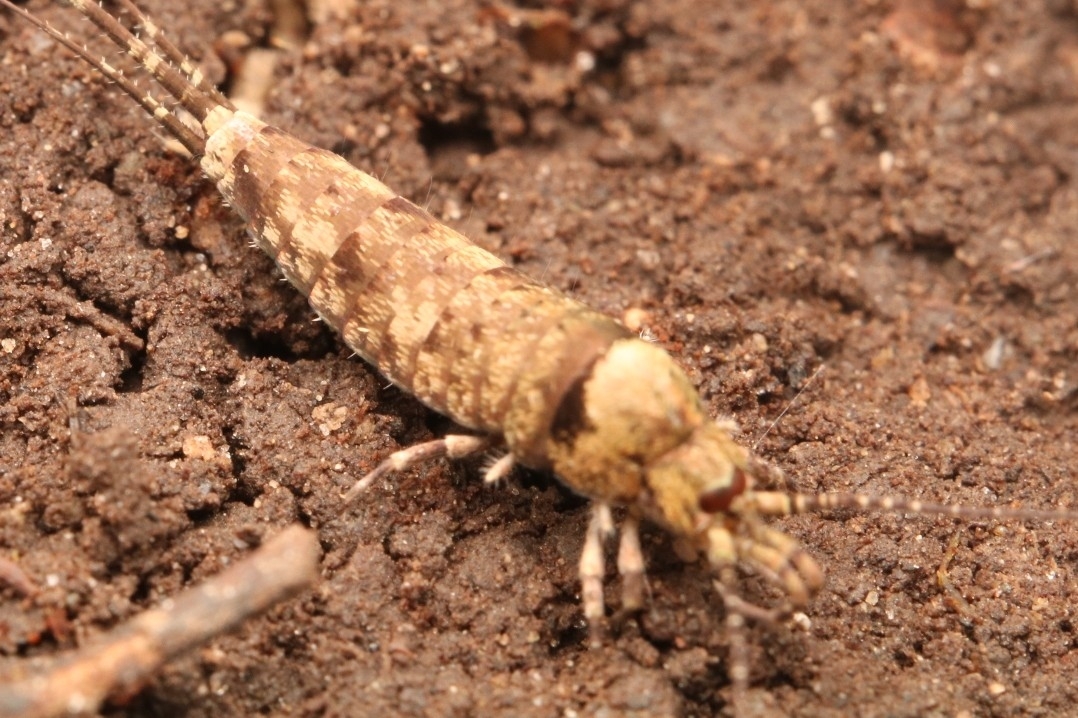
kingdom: Animalia
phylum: Arthropoda
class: Insecta
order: Archaeognatha
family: Machilidae
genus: Trigoniophthalmus
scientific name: Trigoniophthalmus alternatus
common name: Jumping bristletail
